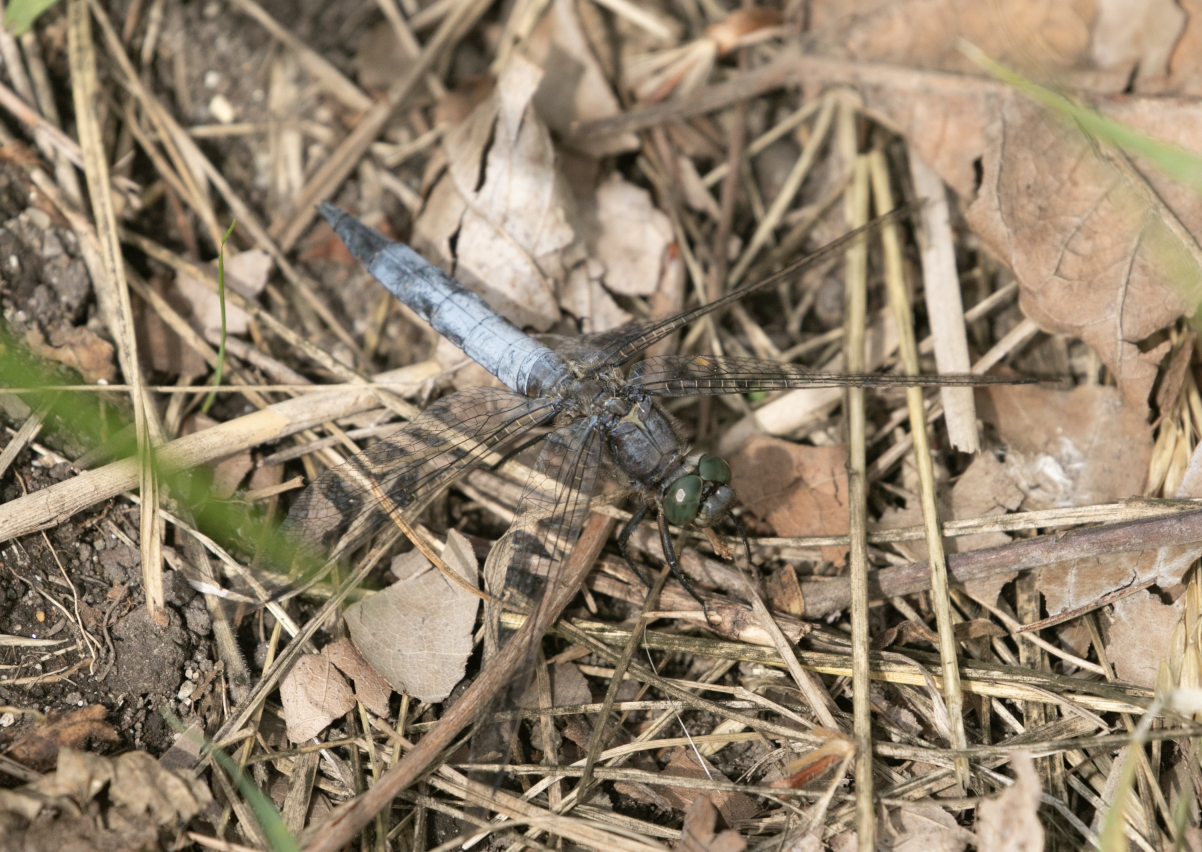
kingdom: Animalia
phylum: Arthropoda
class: Insecta
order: Odonata
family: Libellulidae
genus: Orthetrum
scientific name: Orthetrum cancellatum
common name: Black-tailed skimmer
